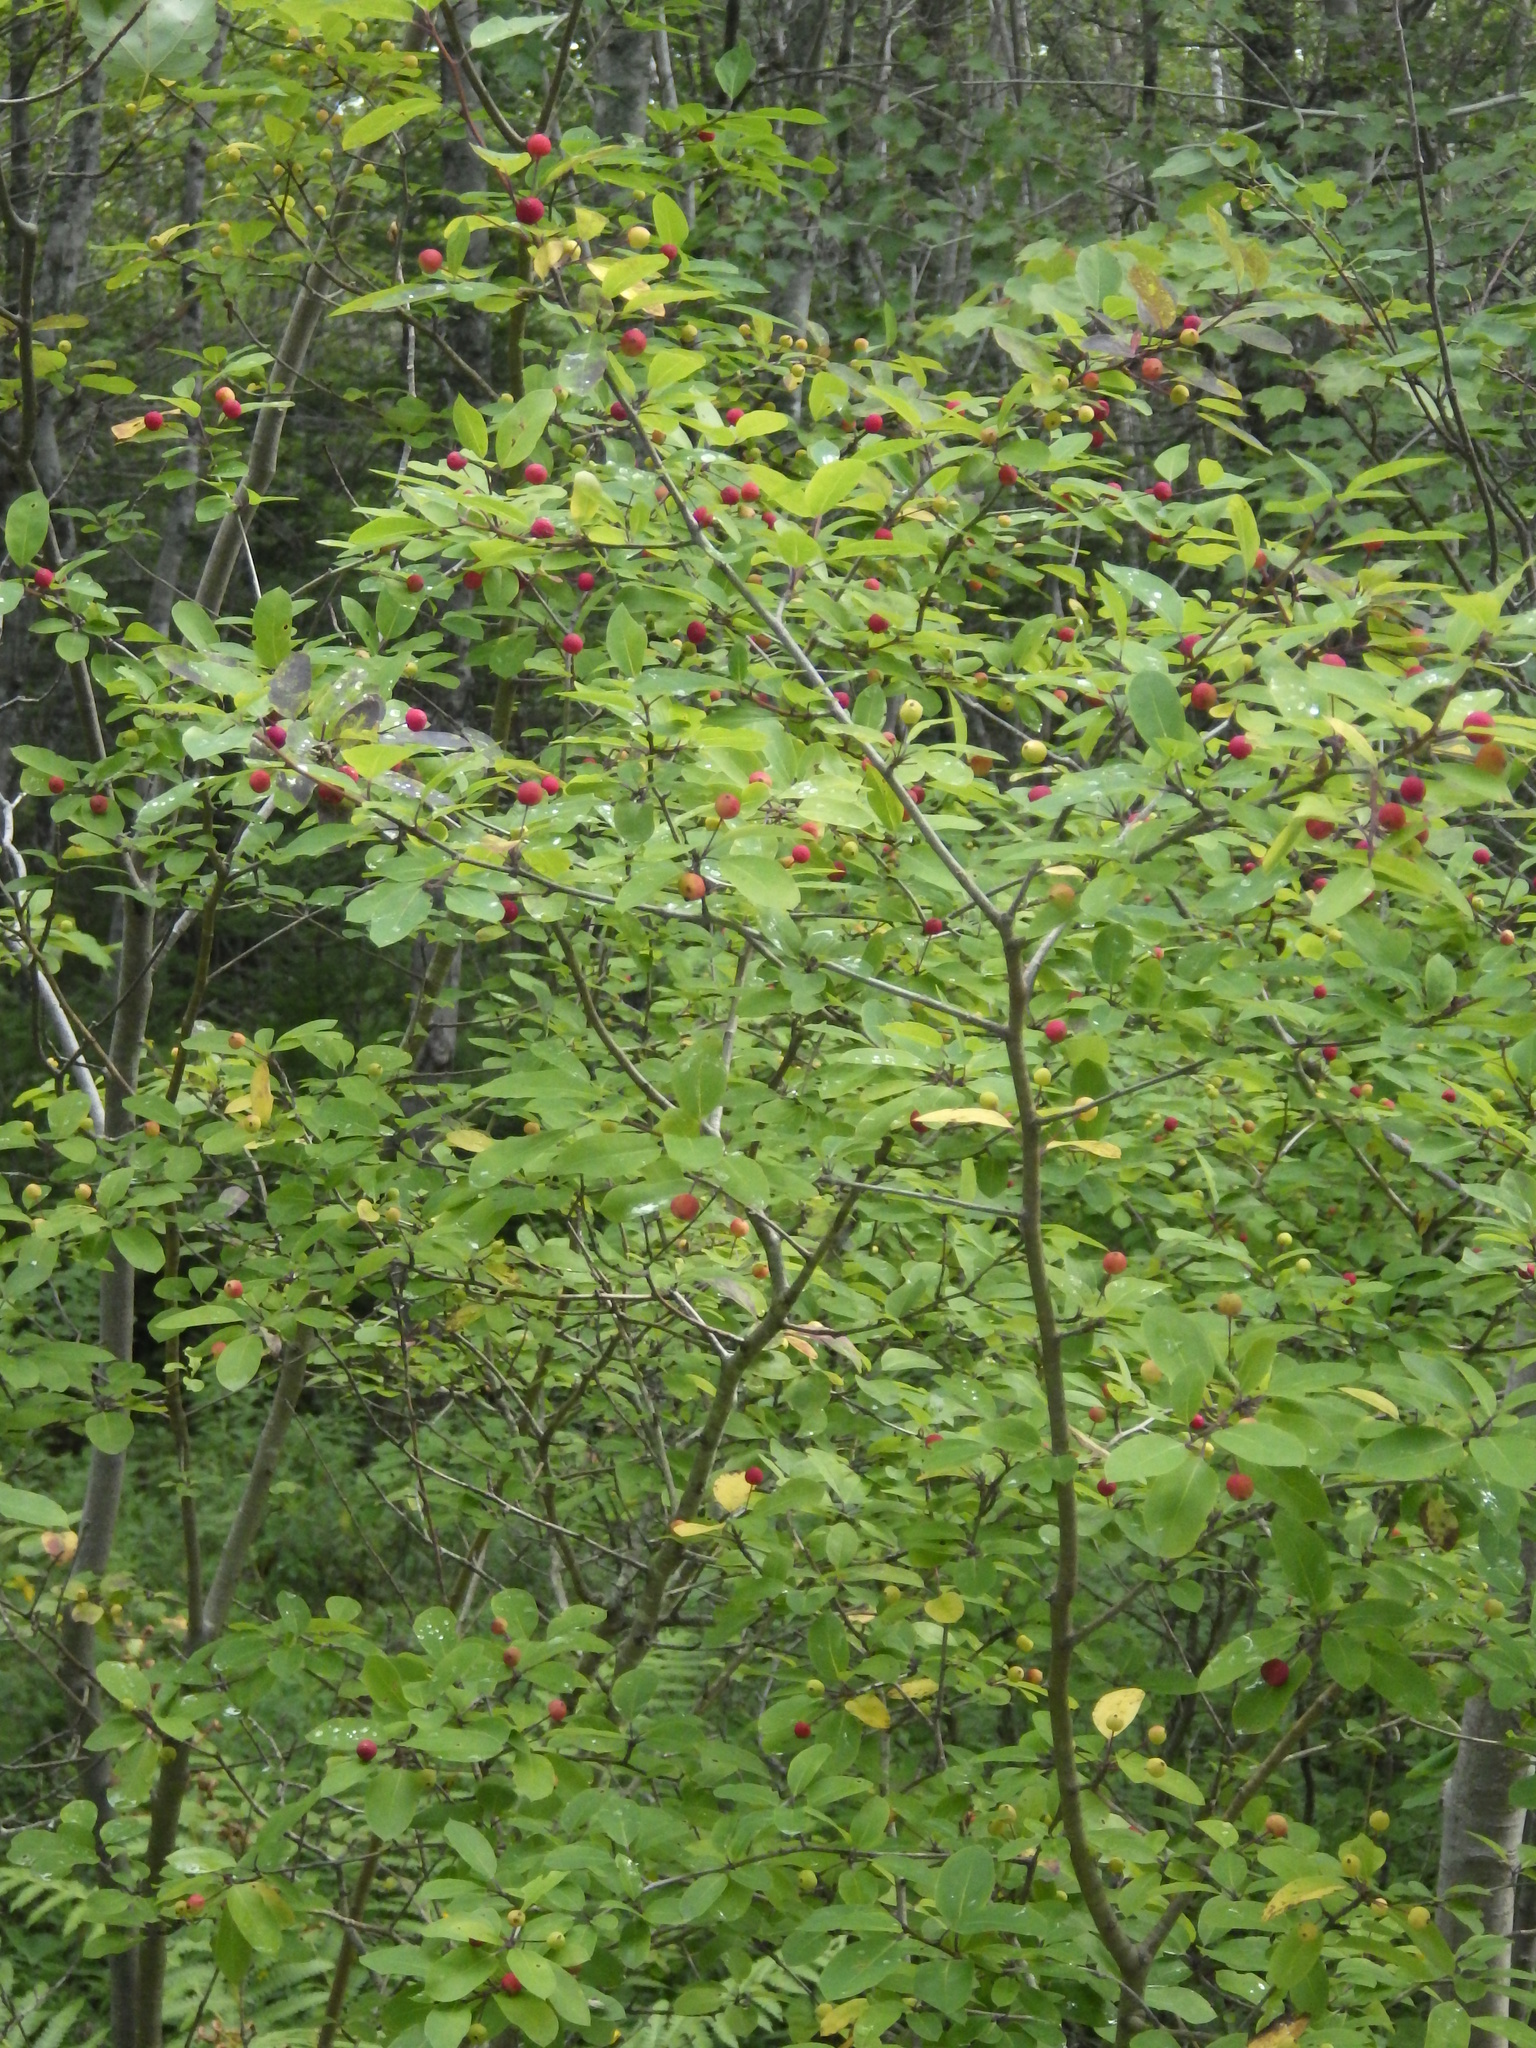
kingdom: Plantae
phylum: Tracheophyta
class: Magnoliopsida
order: Aquifoliales
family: Aquifoliaceae
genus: Ilex
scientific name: Ilex mucronata
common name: Catberry
